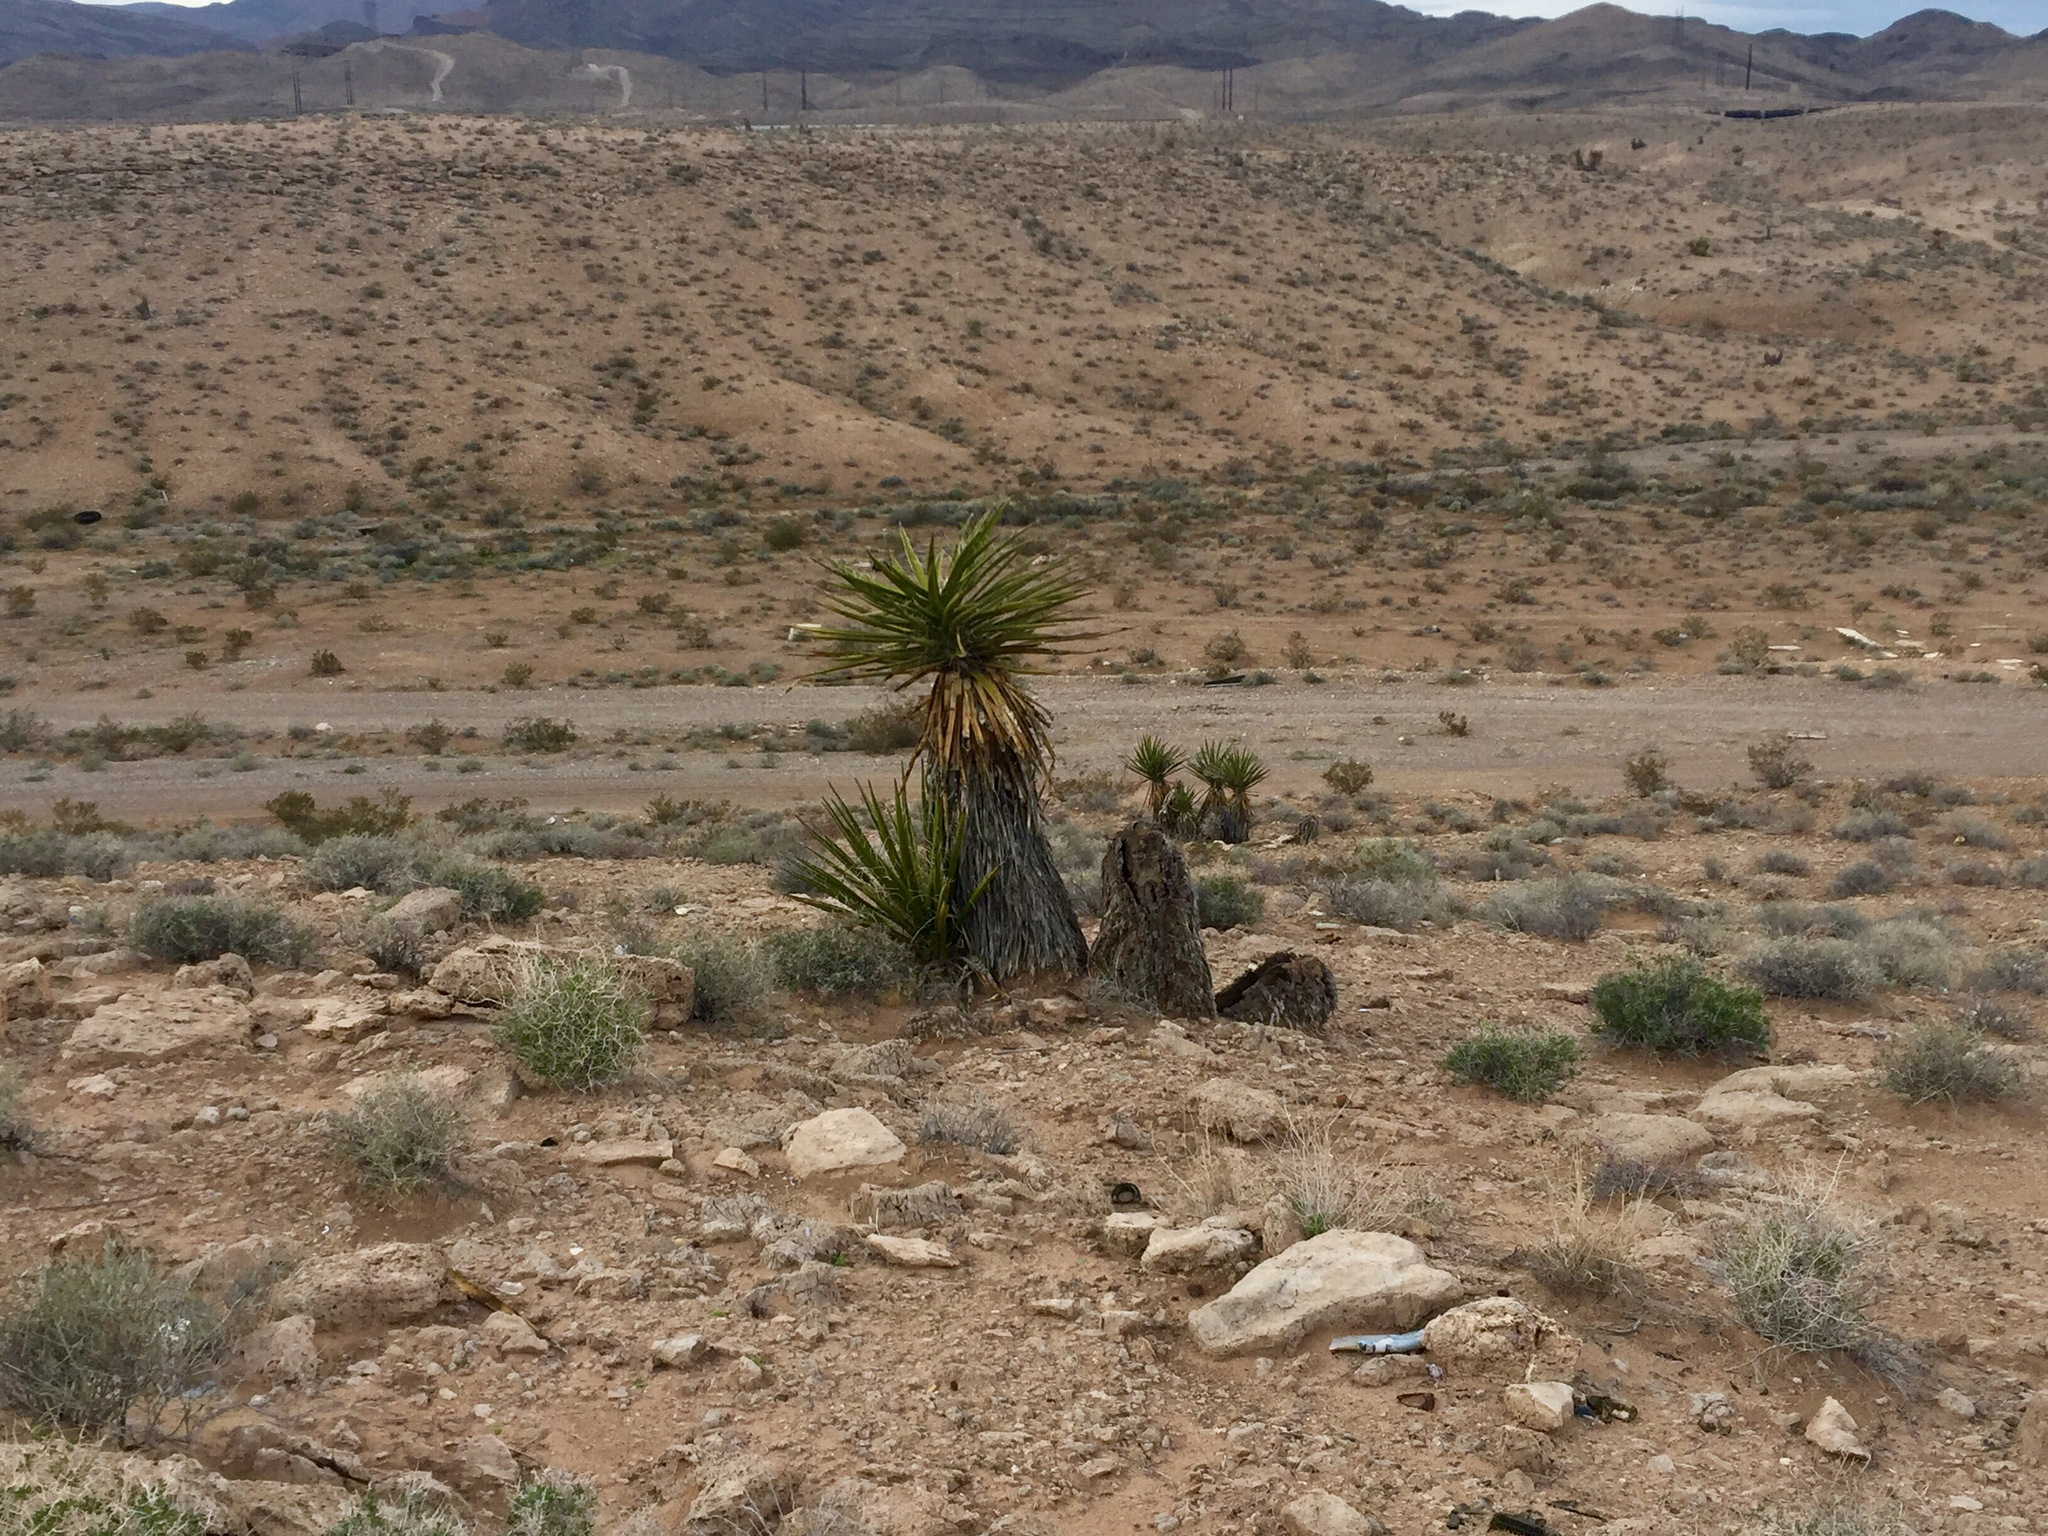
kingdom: Plantae
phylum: Tracheophyta
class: Liliopsida
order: Asparagales
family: Asparagaceae
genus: Yucca
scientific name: Yucca schidigera
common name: Mojave yucca
